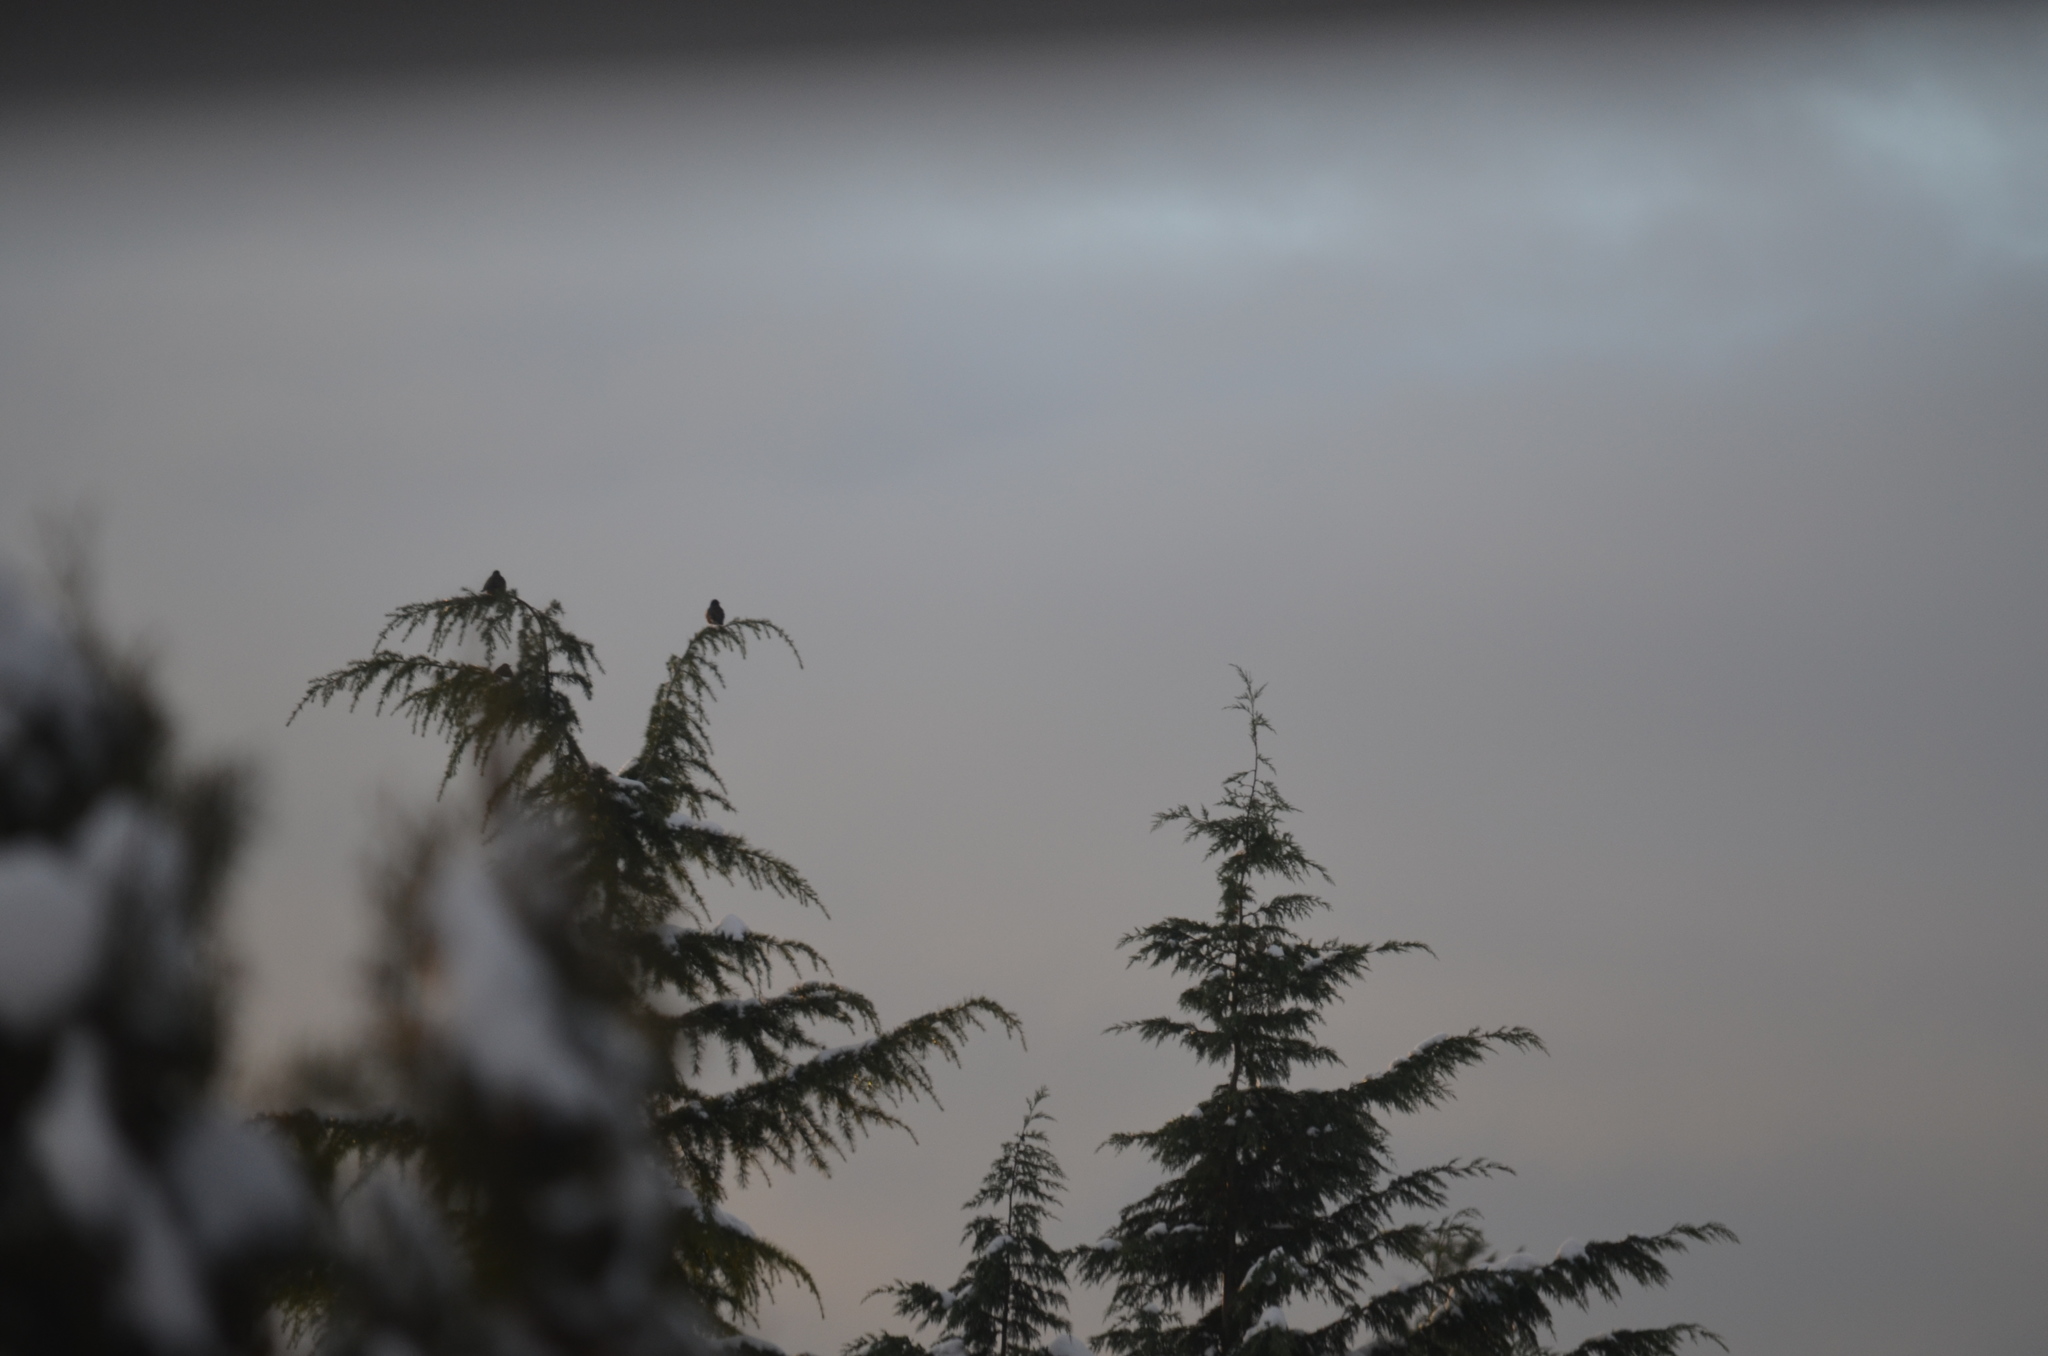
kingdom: Animalia
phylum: Chordata
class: Aves
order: Passeriformes
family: Turdidae
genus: Turdus
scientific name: Turdus migratorius
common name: American robin
